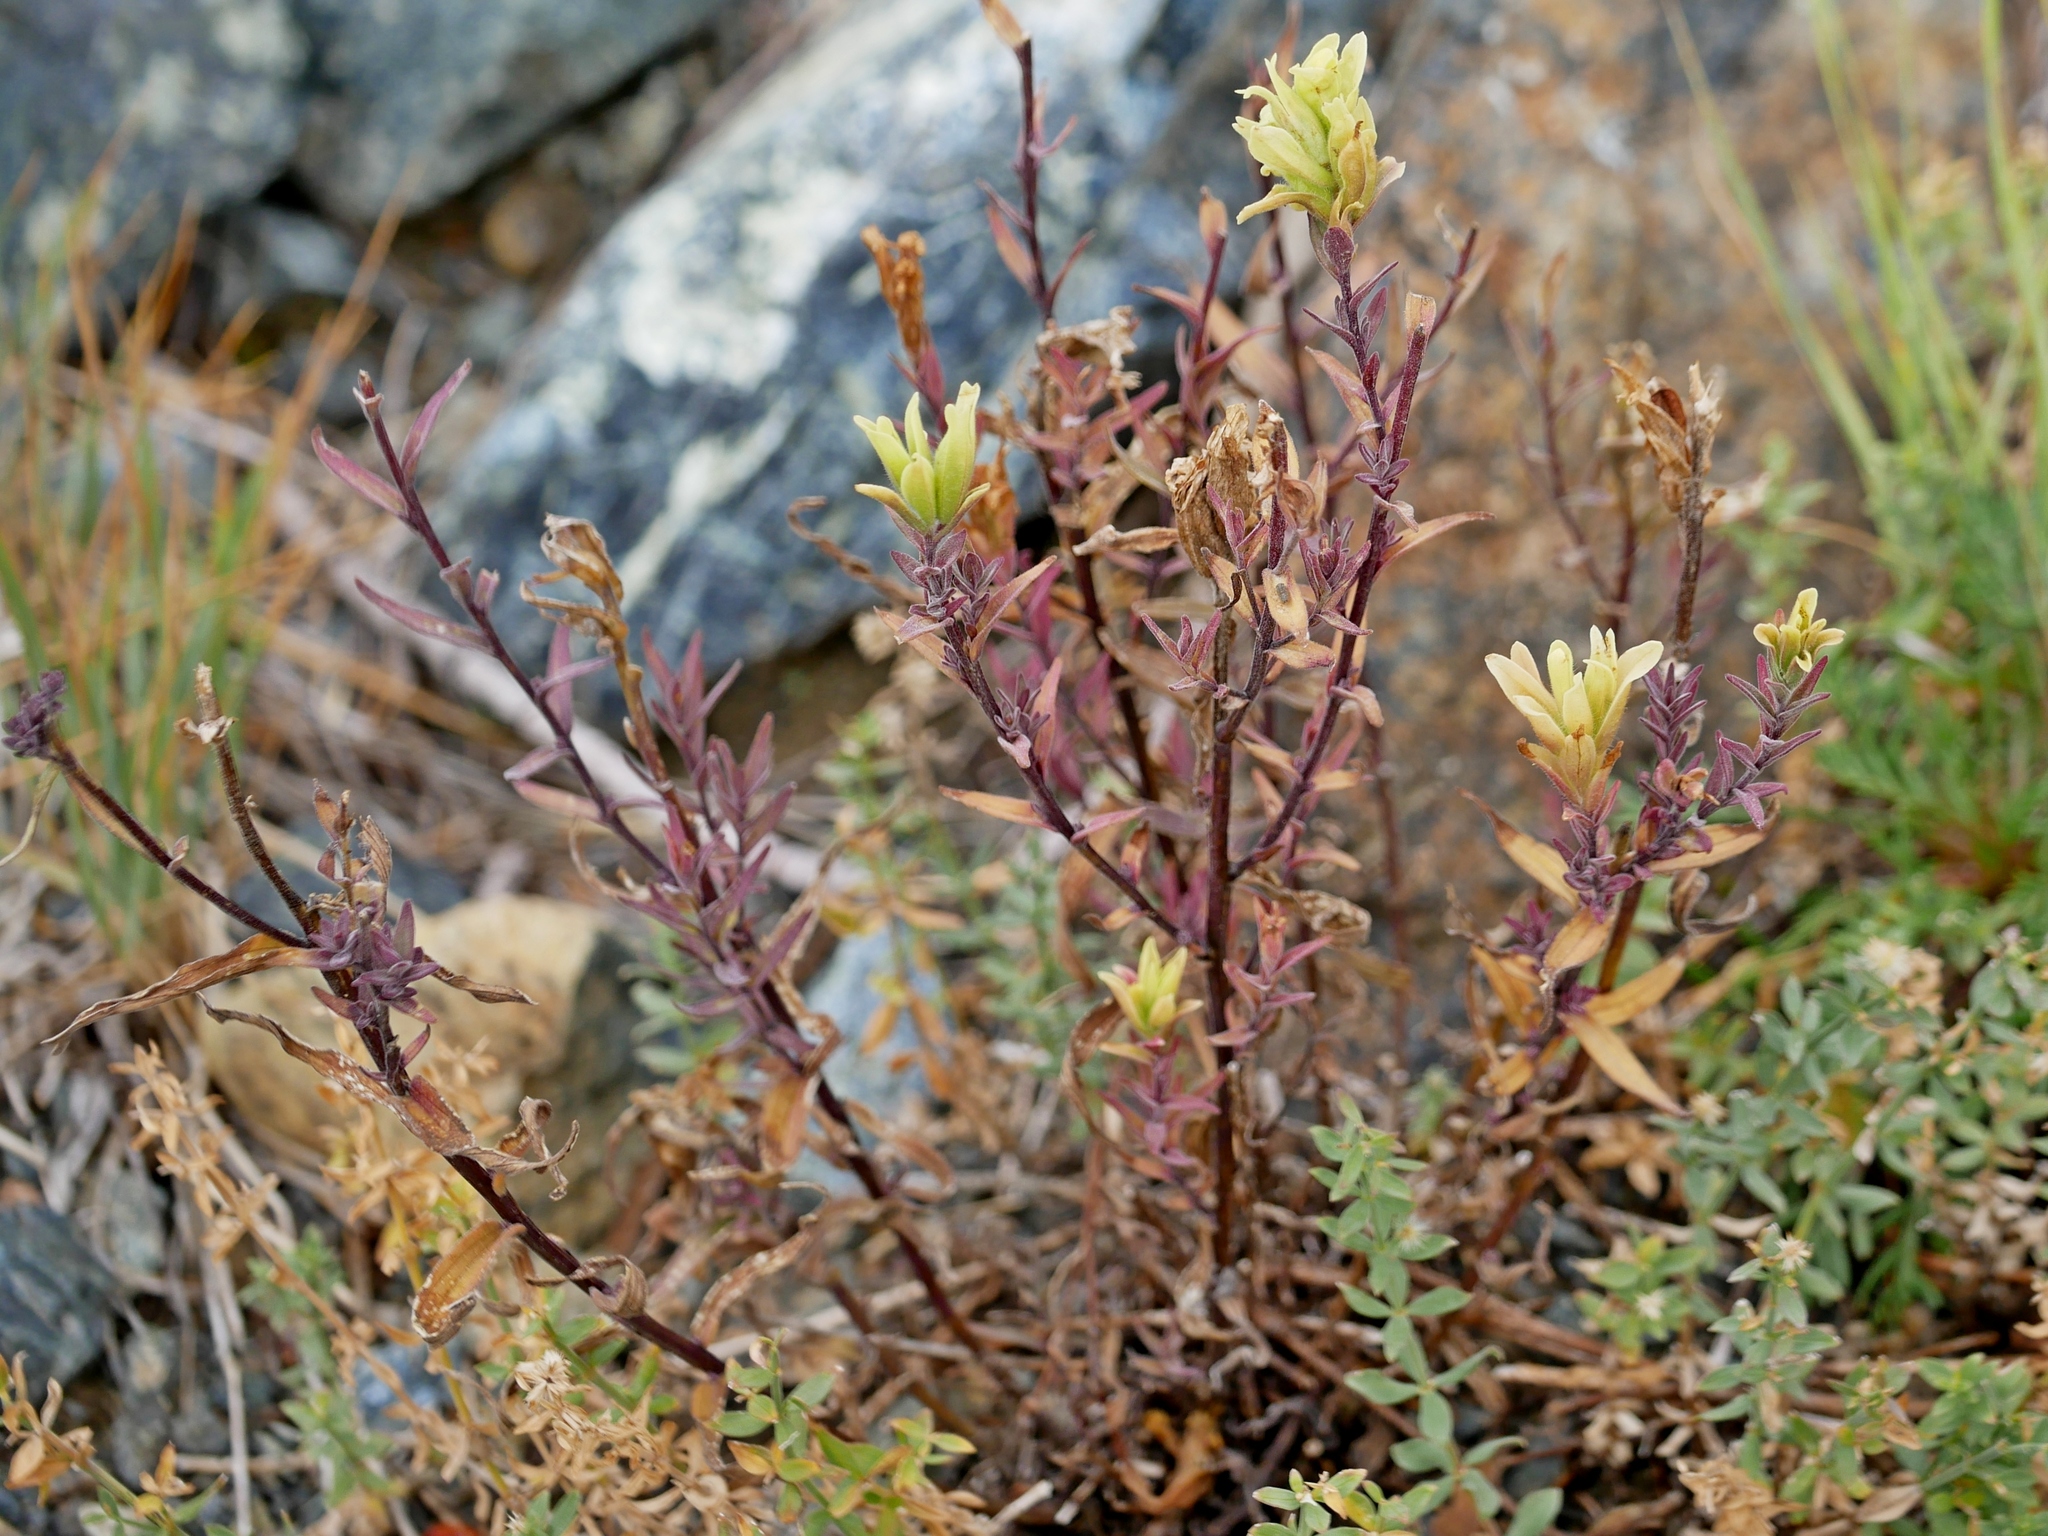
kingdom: Plantae
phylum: Tracheophyta
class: Magnoliopsida
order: Lamiales
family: Orobanchaceae
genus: Castilleja
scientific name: Castilleja elmeri
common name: Elmer's paintbrush
